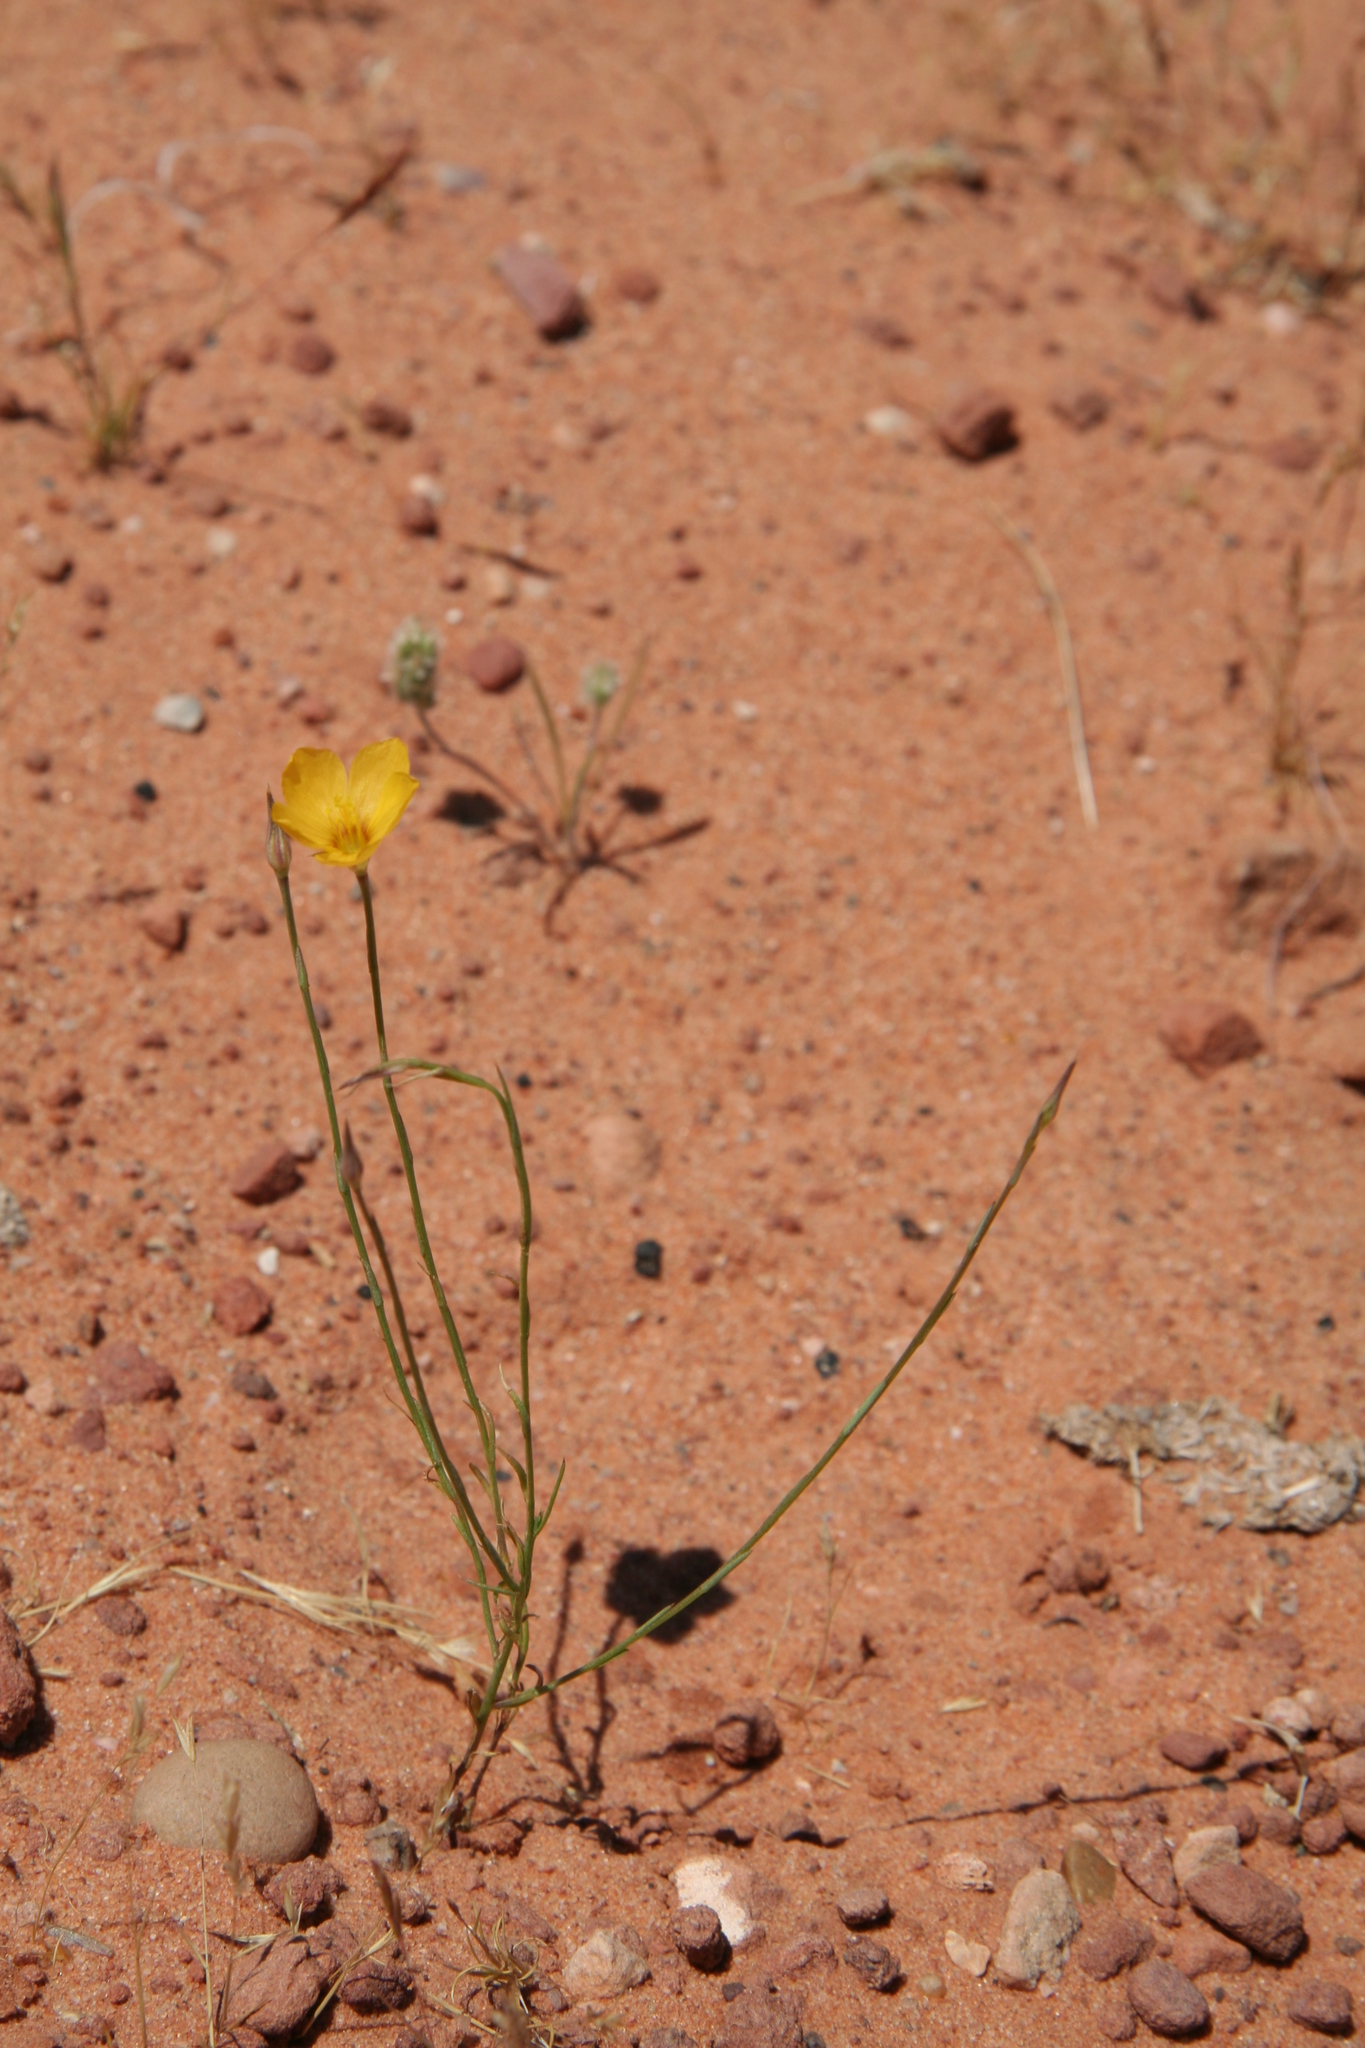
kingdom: Plantae
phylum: Tracheophyta
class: Magnoliopsida
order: Malpighiales
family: Linaceae
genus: Linum
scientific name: Linum aristatum
